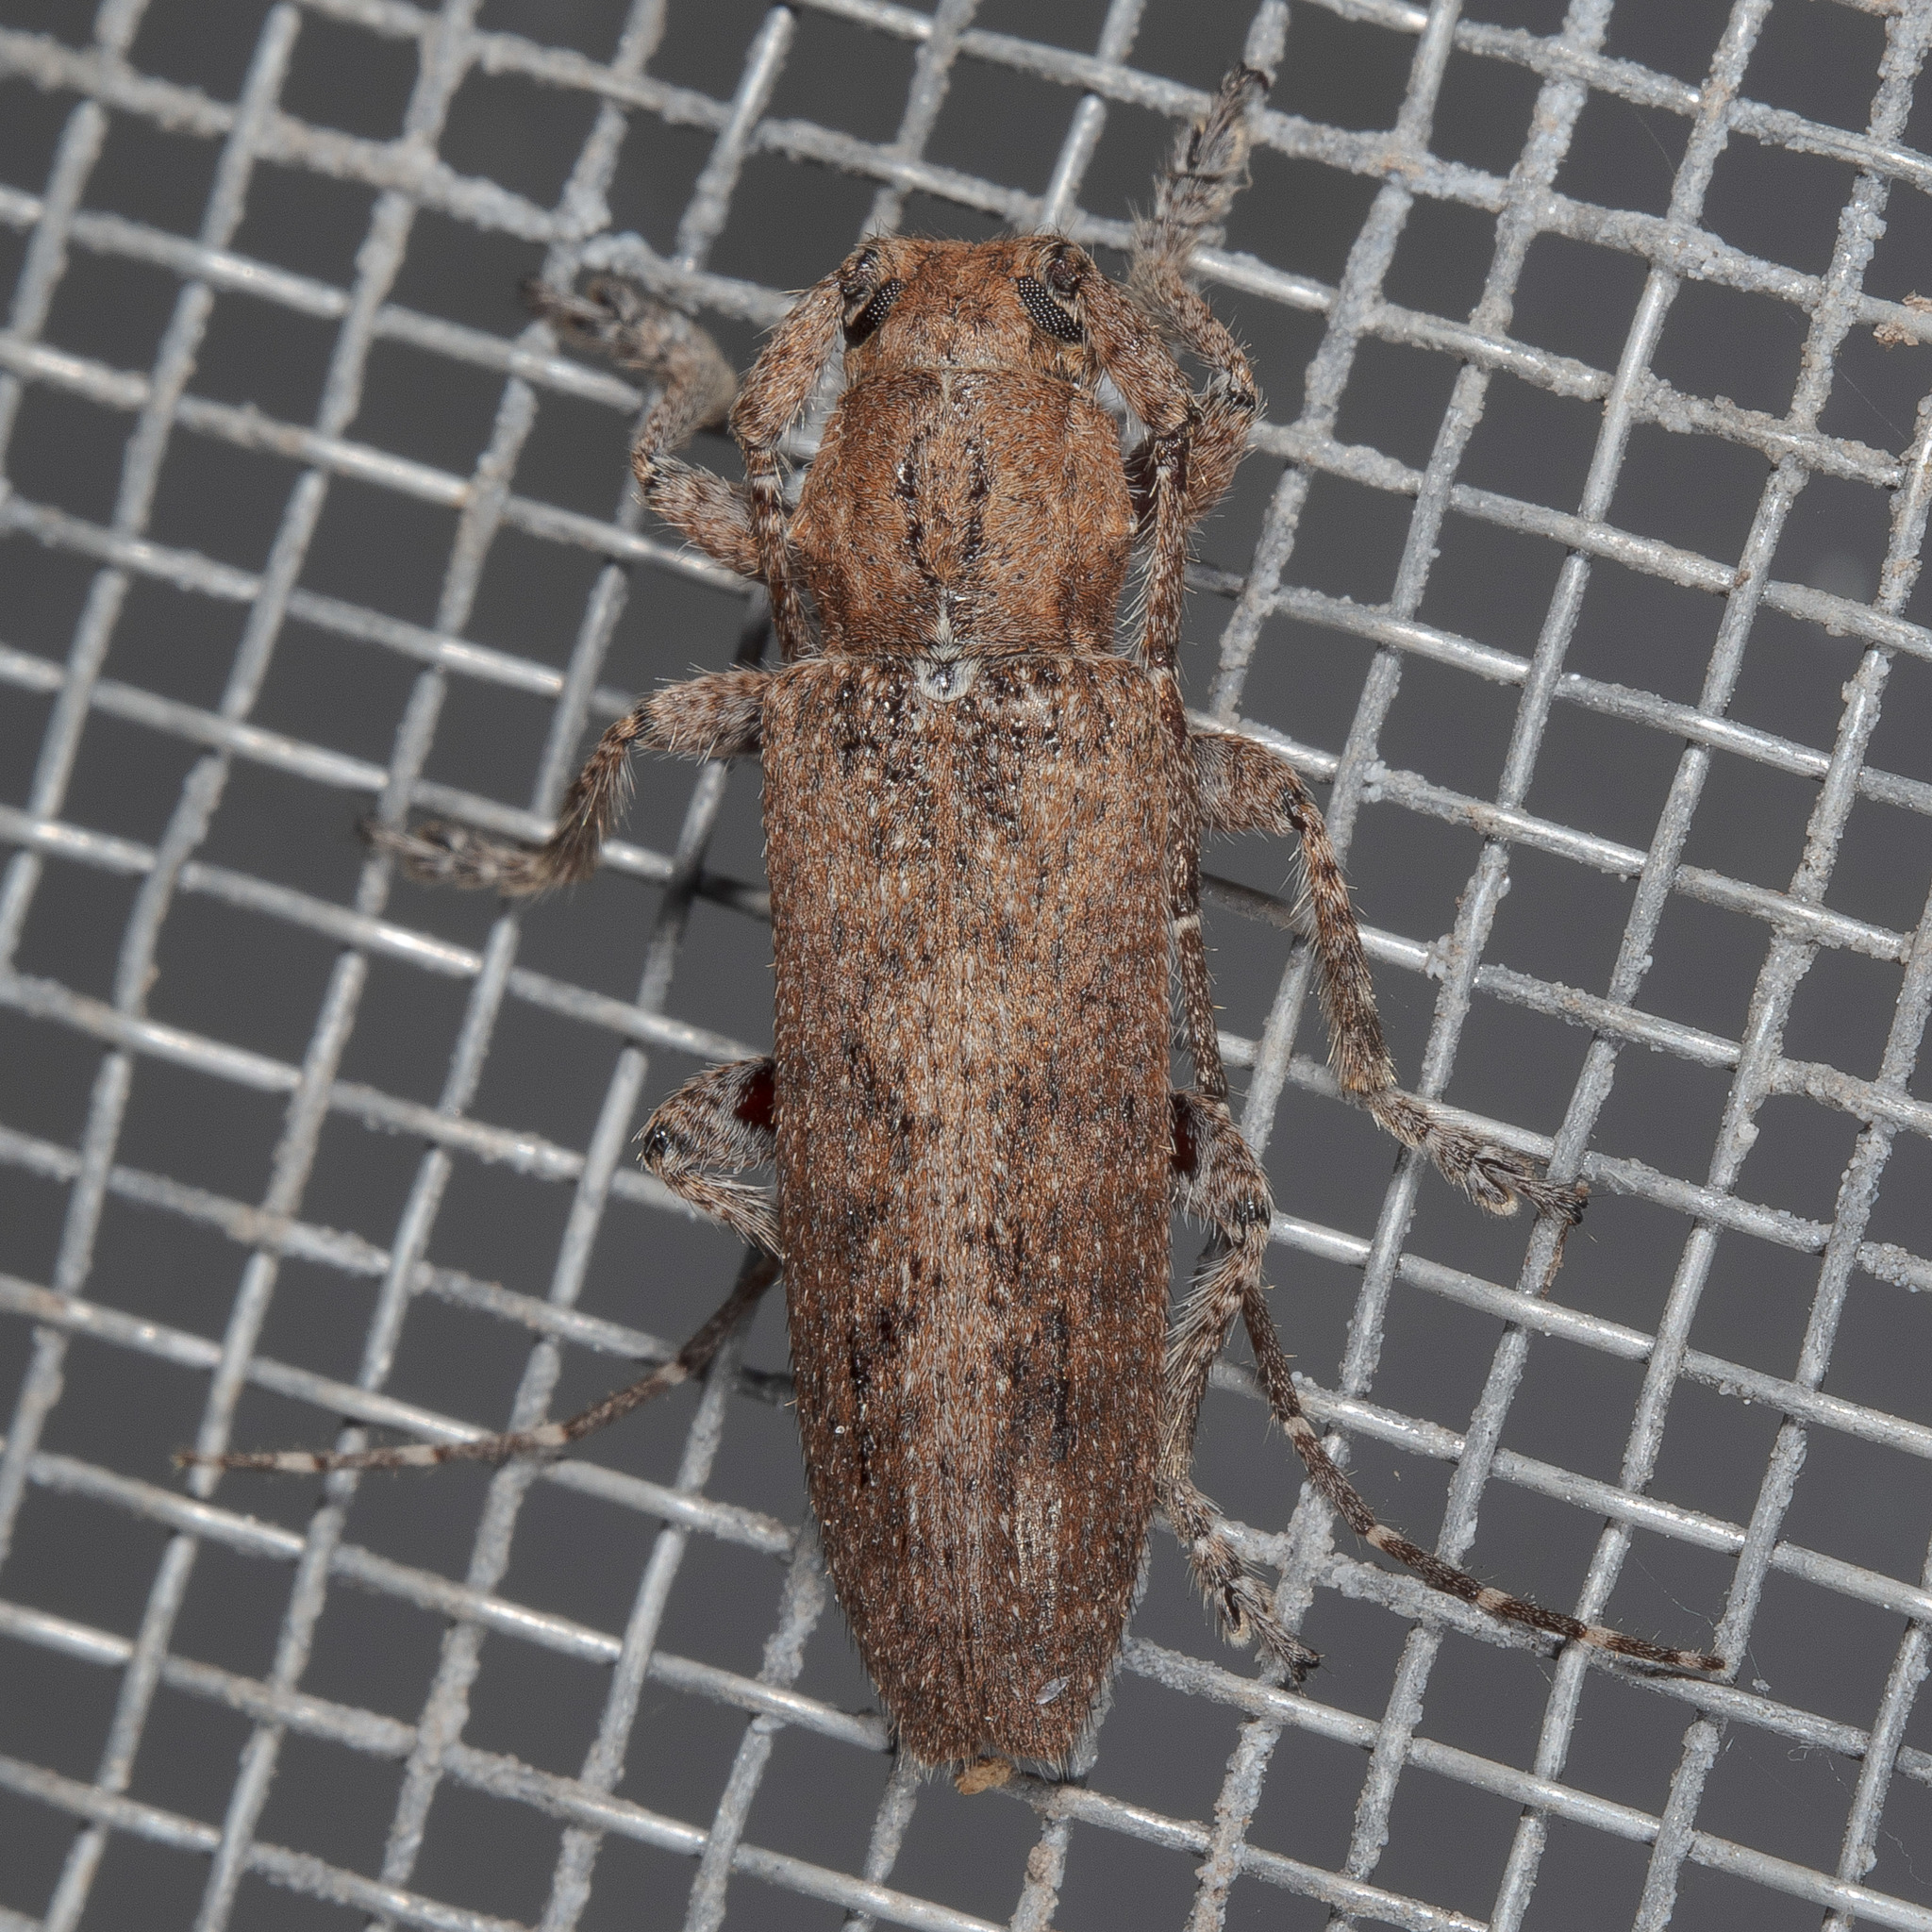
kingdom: Animalia
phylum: Arthropoda
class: Insecta
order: Coleoptera
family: Cerambycidae
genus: Ataxia
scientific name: Ataxia crypta
